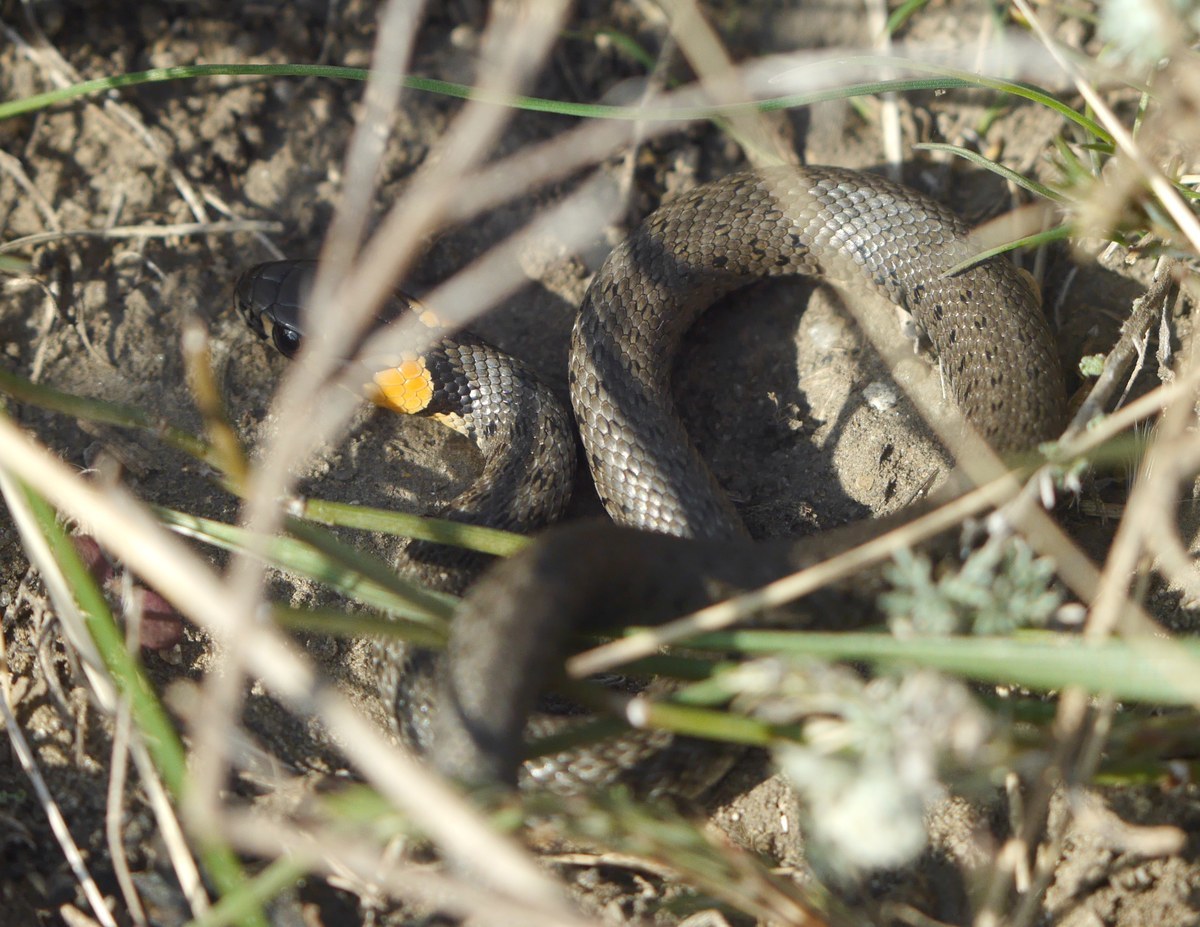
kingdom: Animalia
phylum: Chordata
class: Squamata
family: Colubridae
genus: Natrix
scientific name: Natrix natrix
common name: Grass snake
